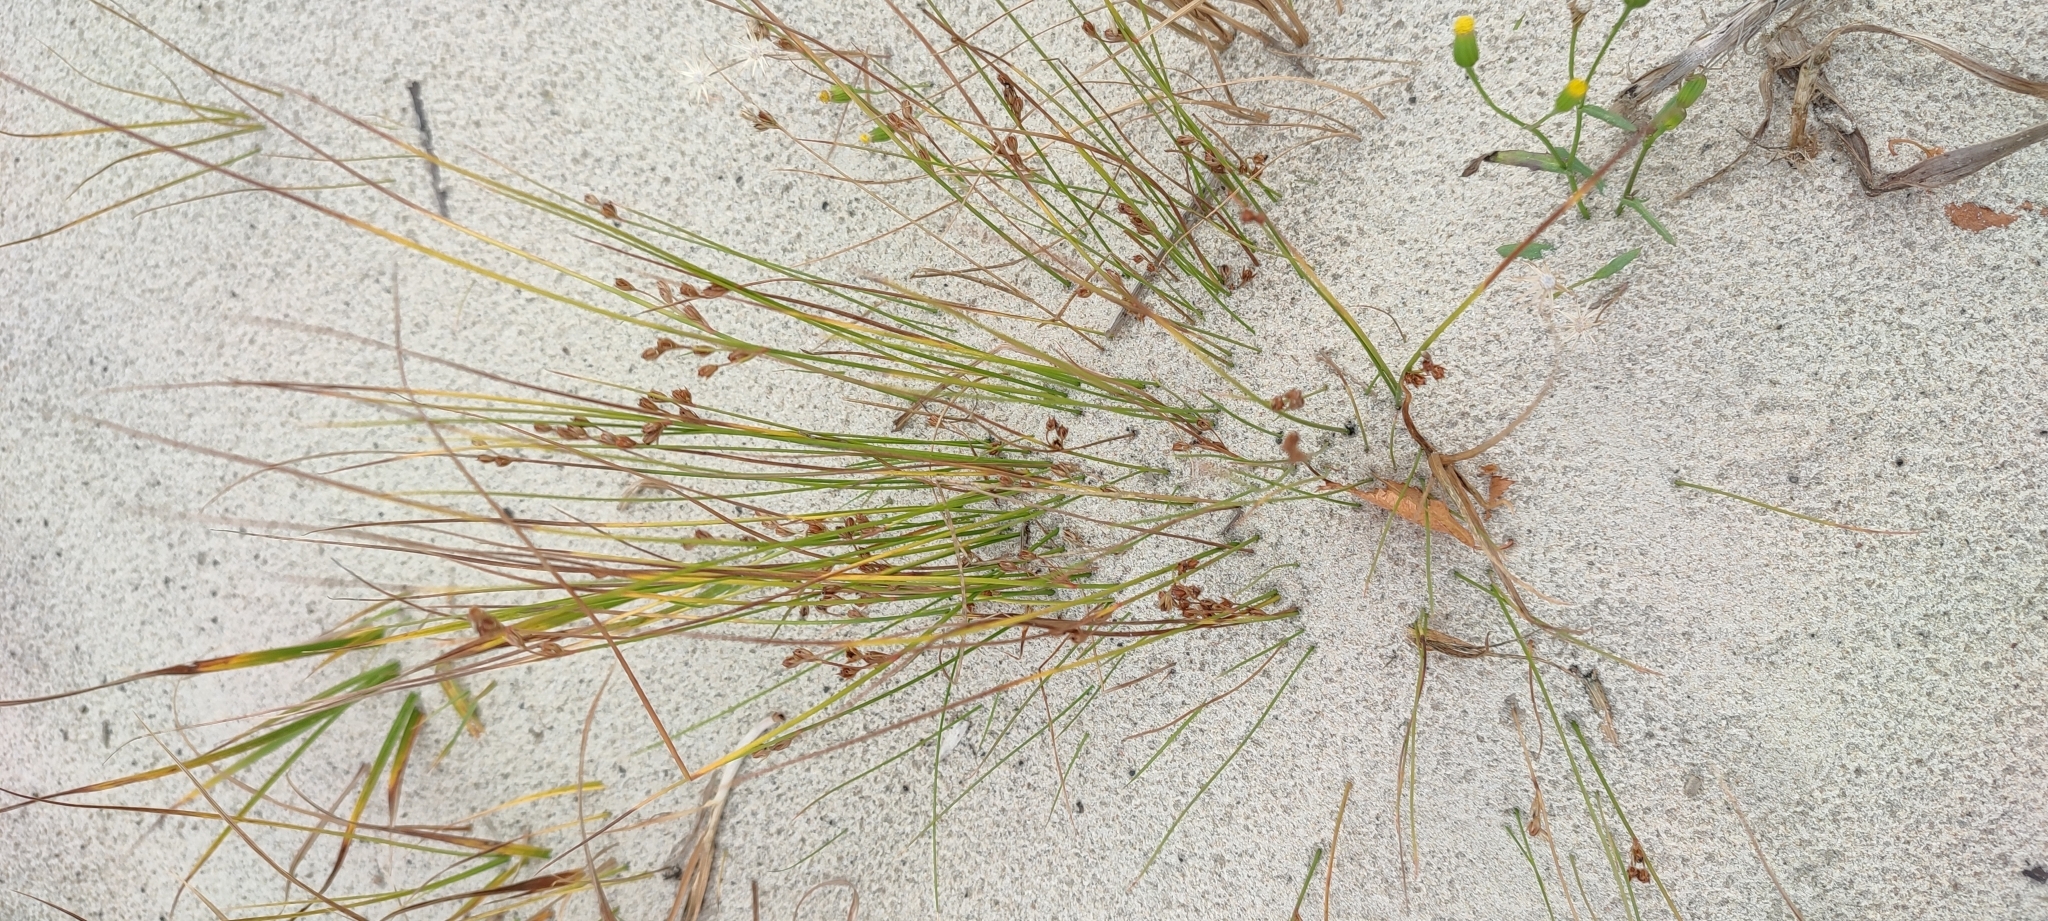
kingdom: Plantae
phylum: Tracheophyta
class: Liliopsida
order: Poales
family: Juncaceae
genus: Juncus
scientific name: Juncus brachyspathus
